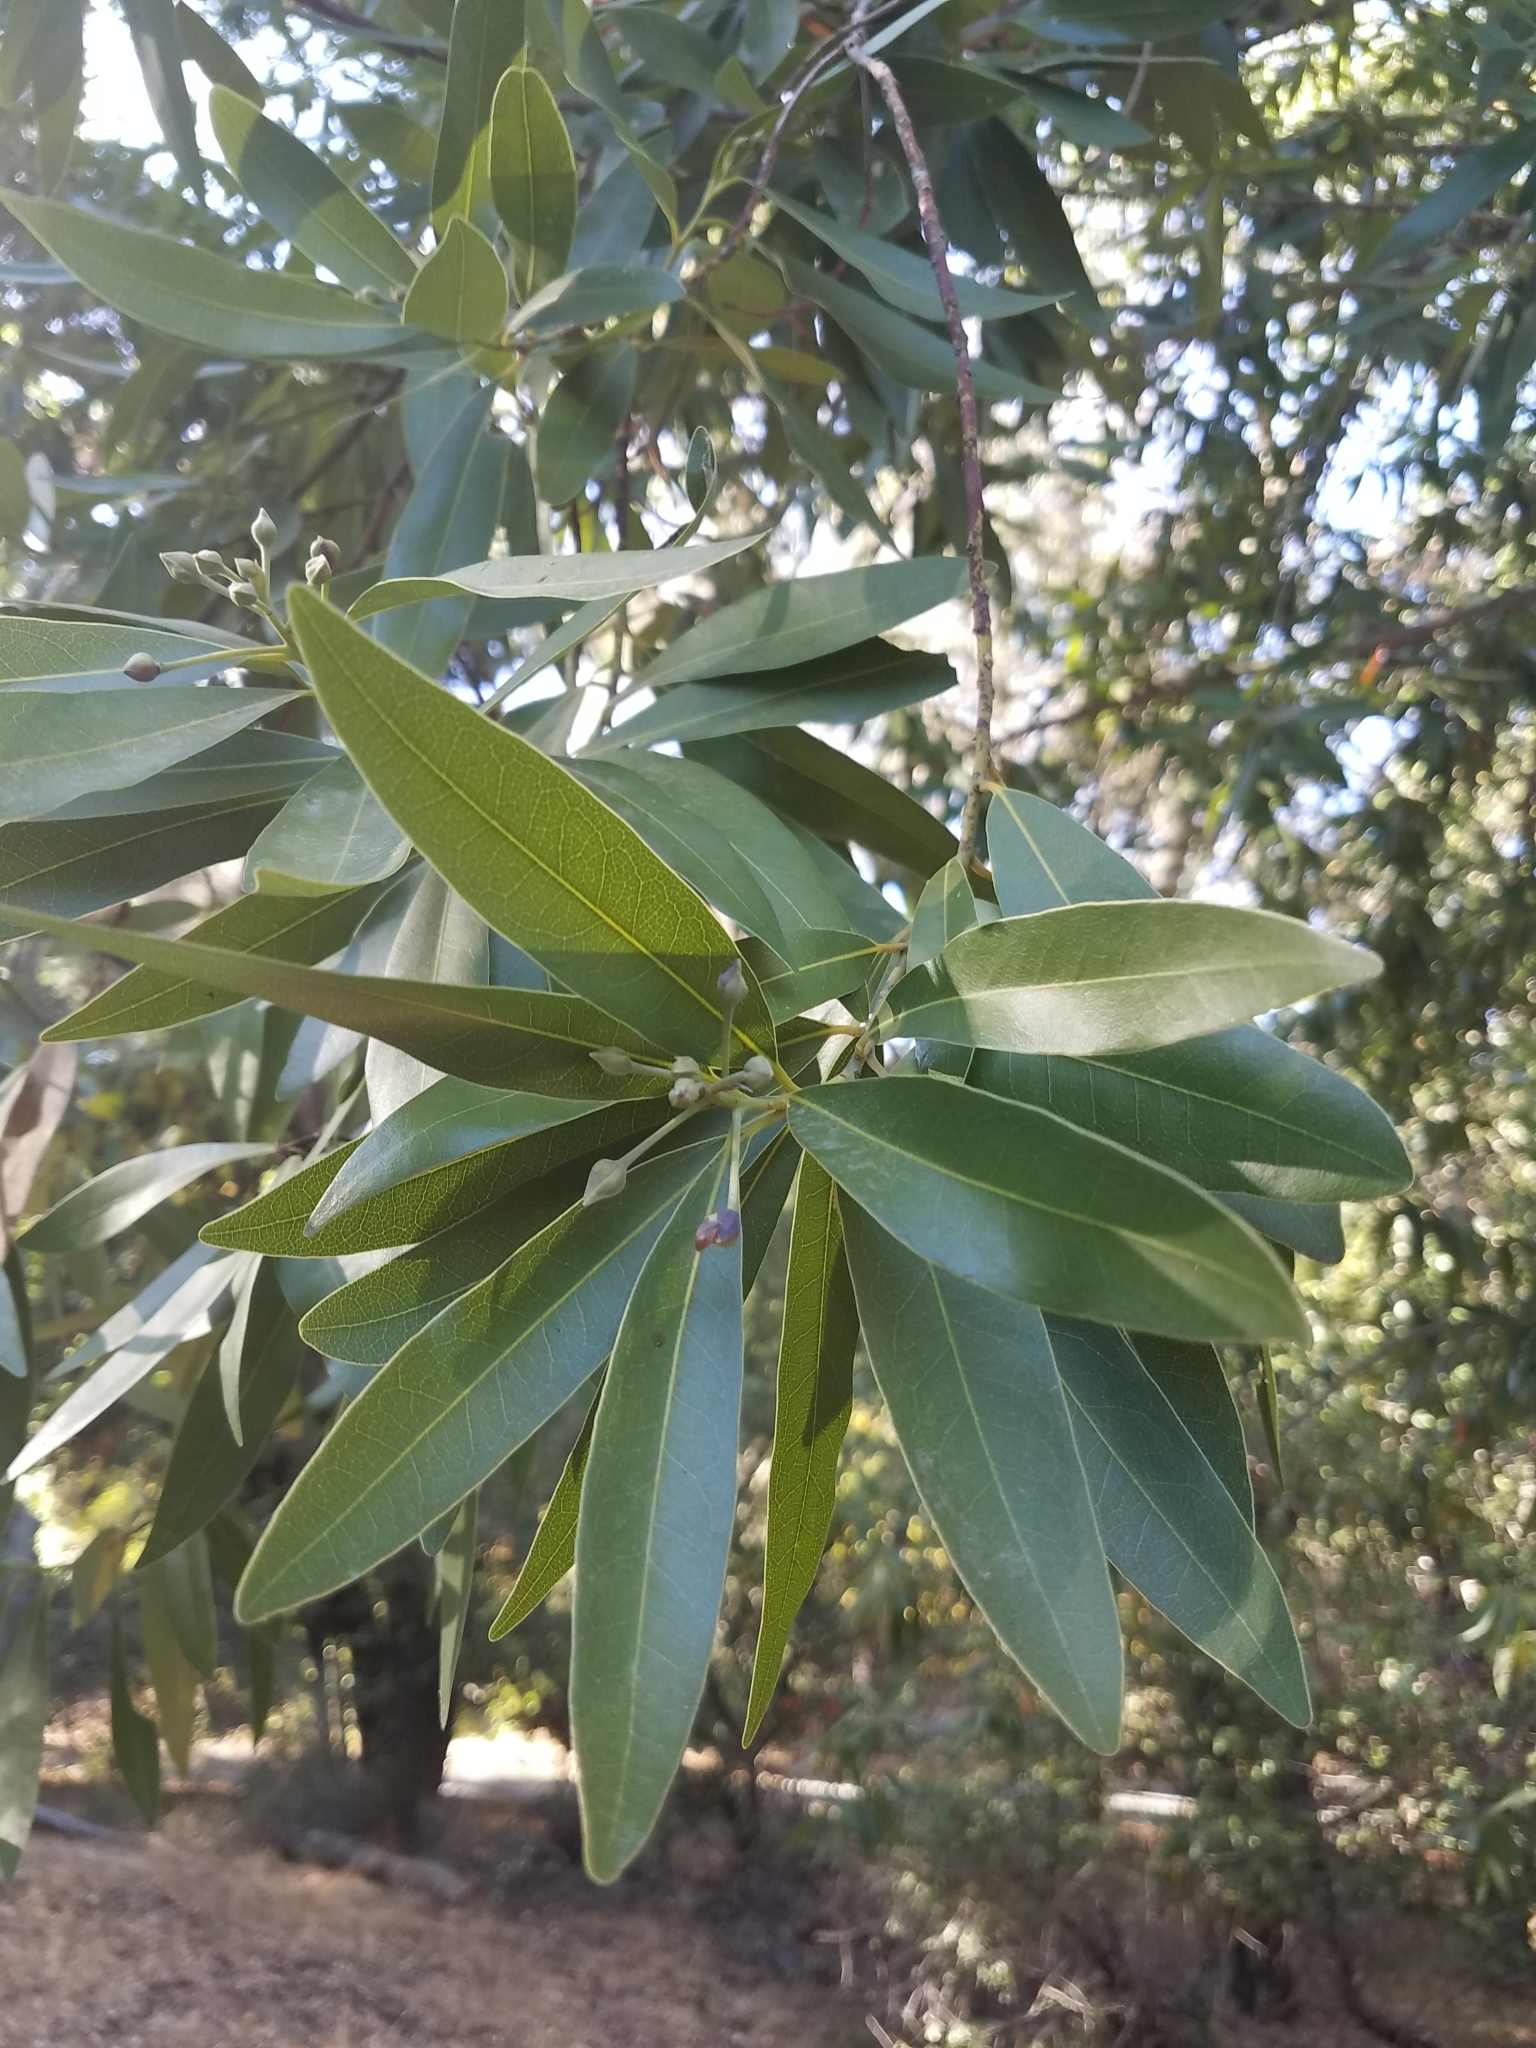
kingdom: Plantae
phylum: Tracheophyta
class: Magnoliopsida
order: Laurales
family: Lauraceae
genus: Umbellularia
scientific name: Umbellularia californica
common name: California bay
